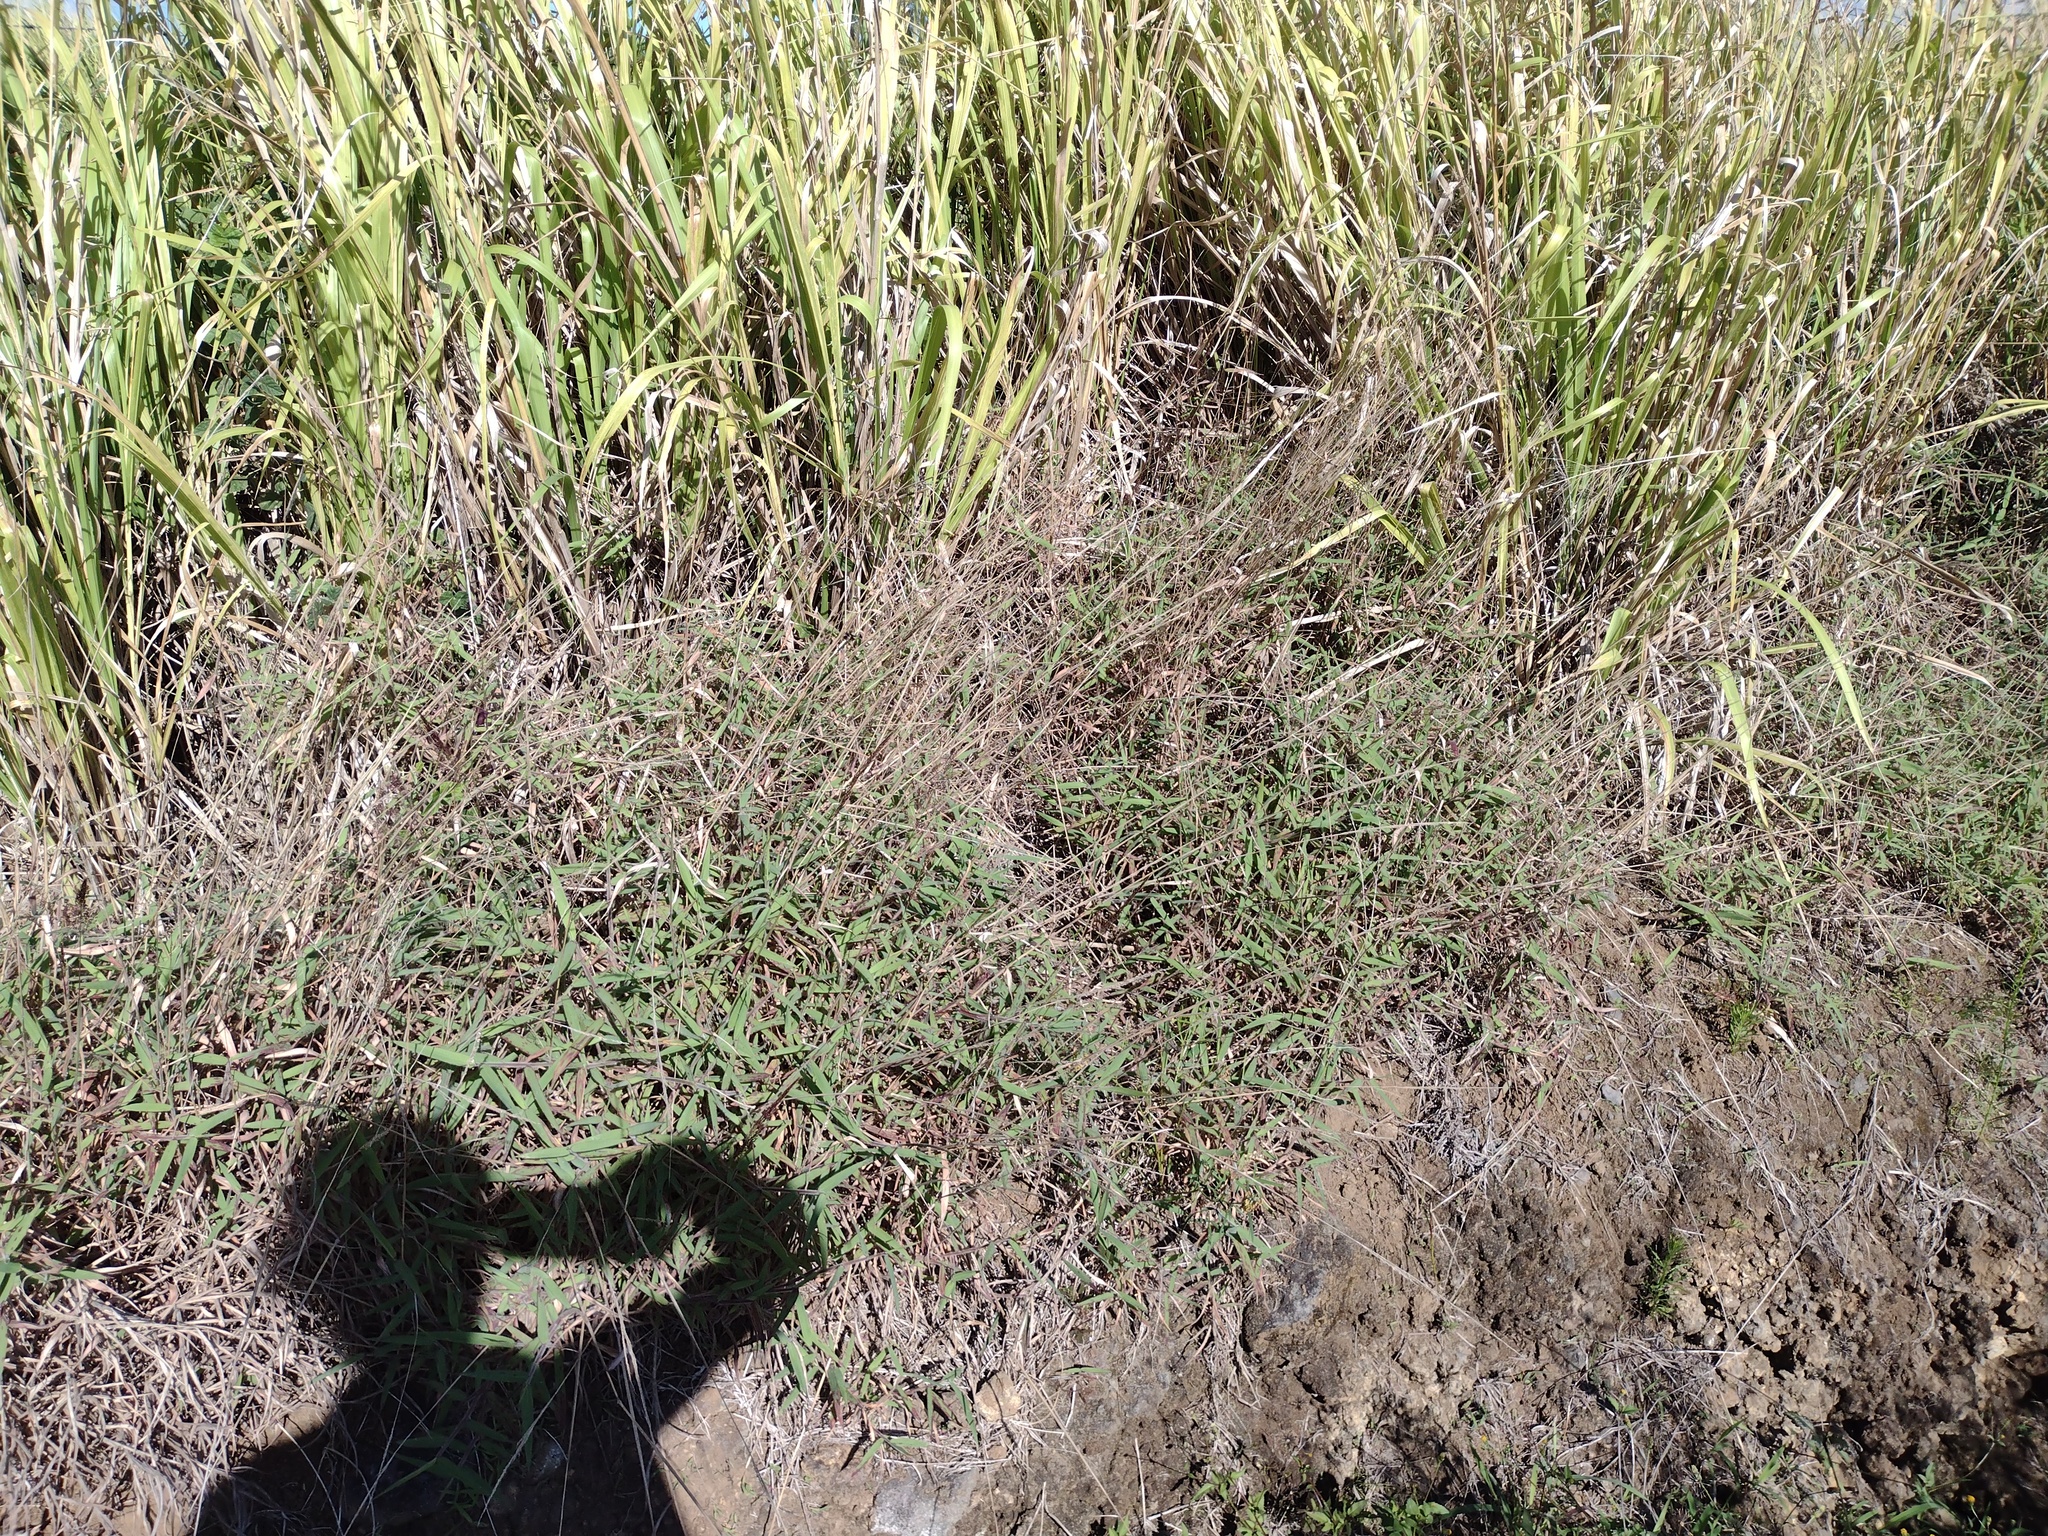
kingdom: Plantae
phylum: Tracheophyta
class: Liliopsida
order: Poales
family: Poaceae
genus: Melinis
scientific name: Melinis minutiflora
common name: Molassesgrass
